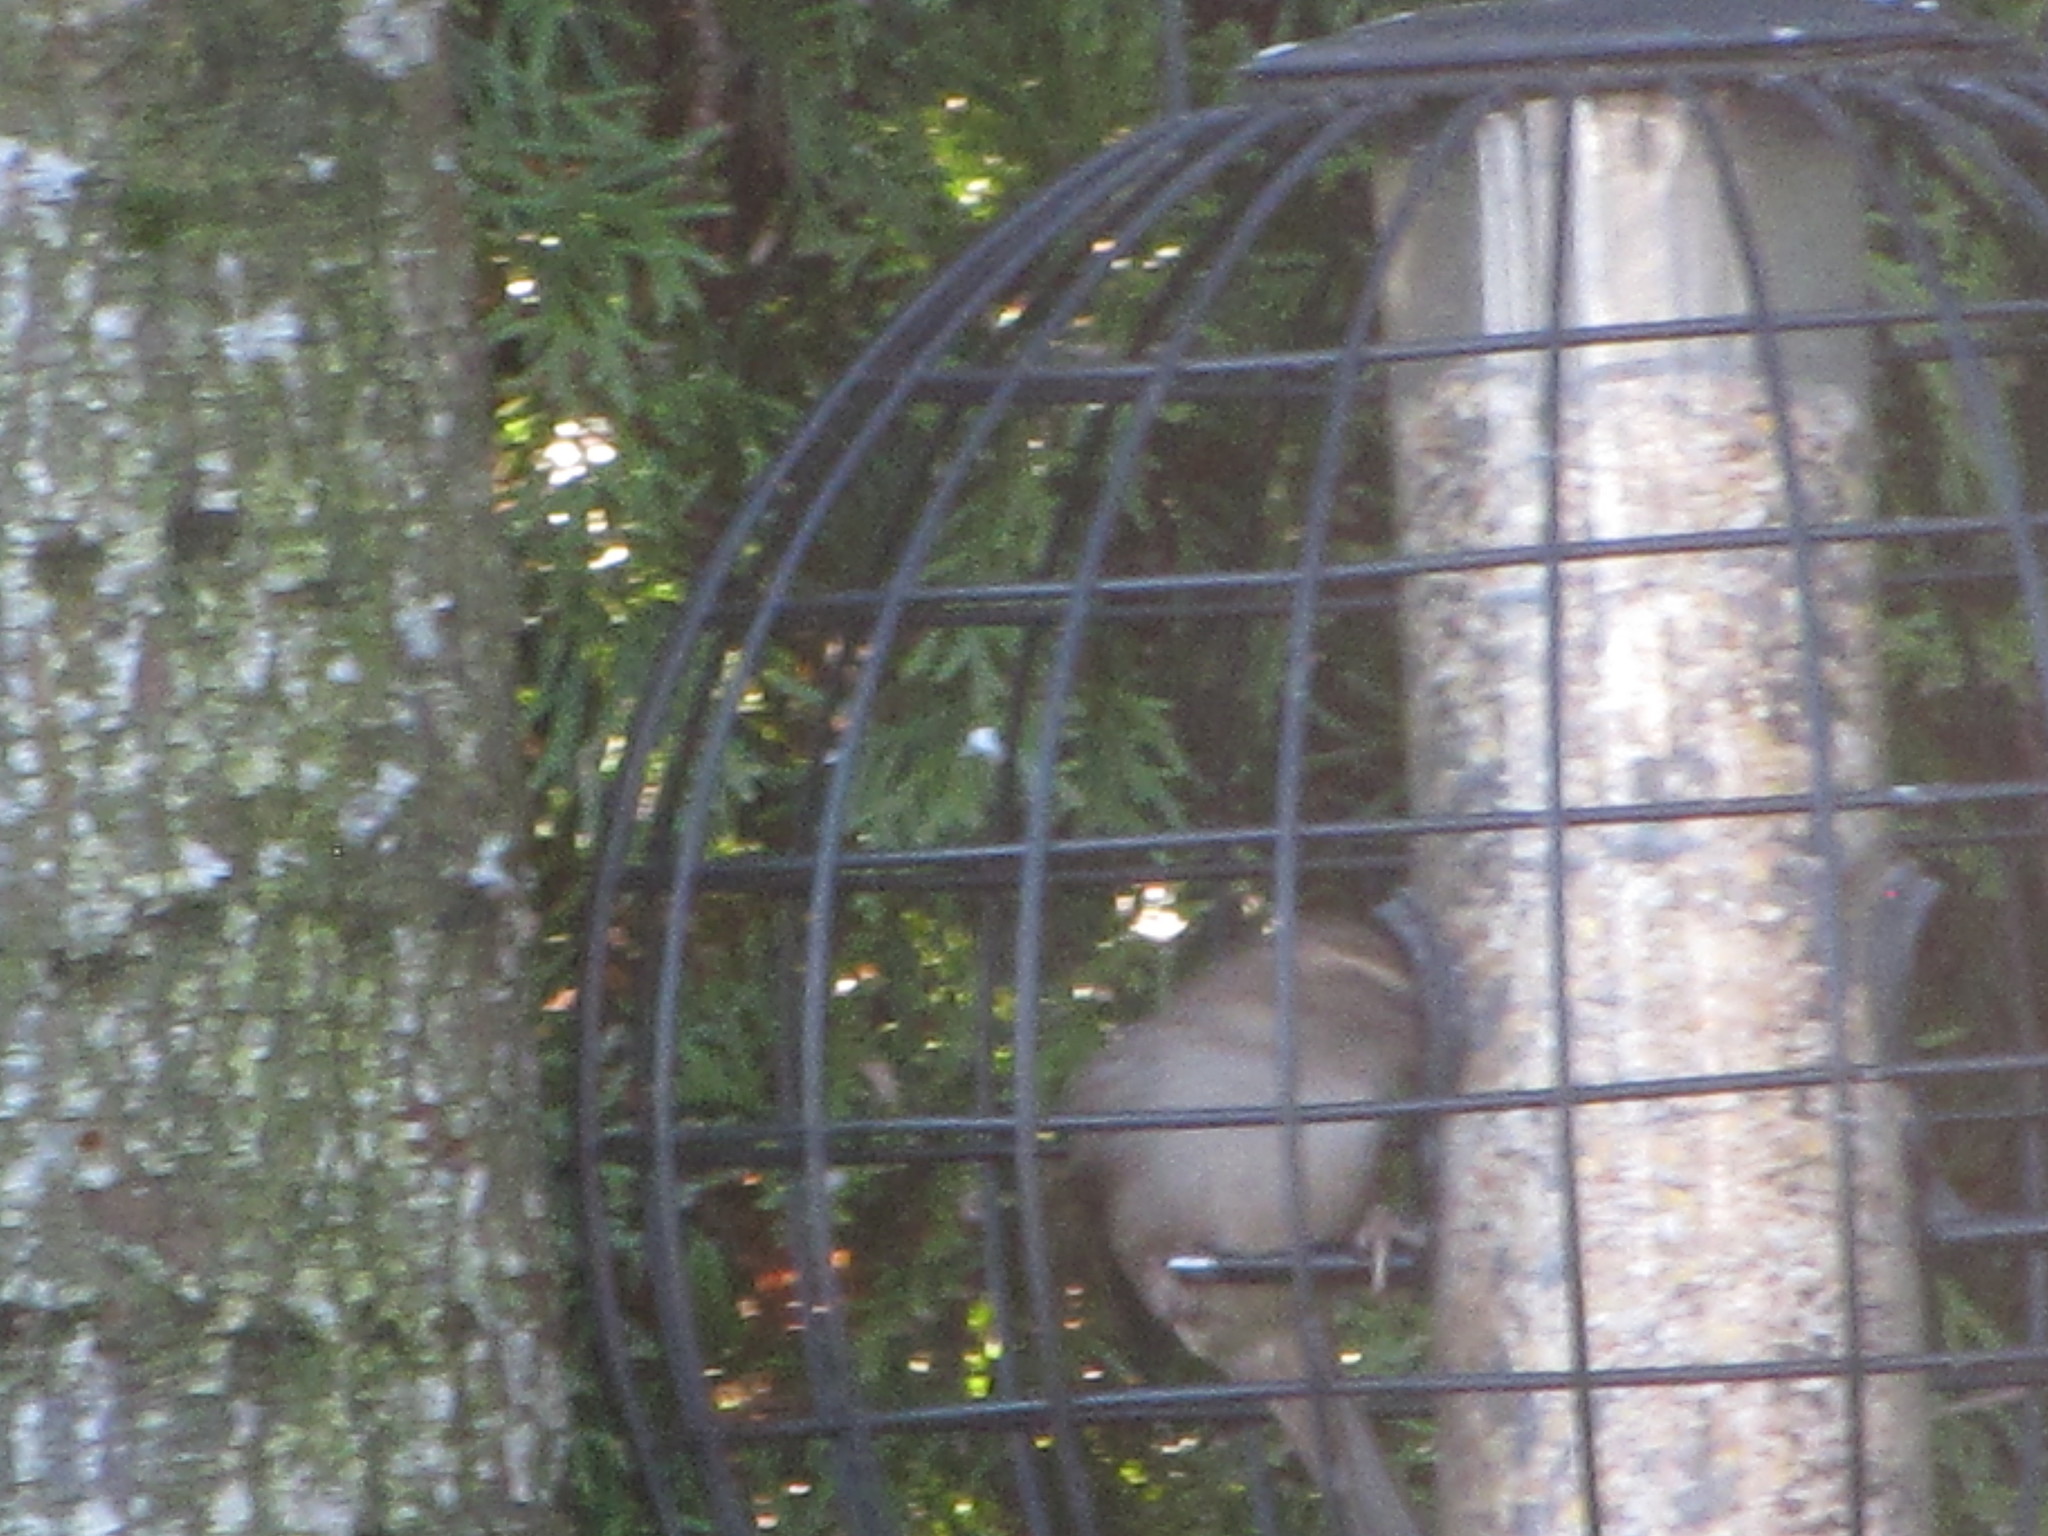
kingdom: Animalia
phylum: Chordata
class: Aves
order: Passeriformes
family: Passeridae
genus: Passer
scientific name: Passer domesticus
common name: House sparrow
